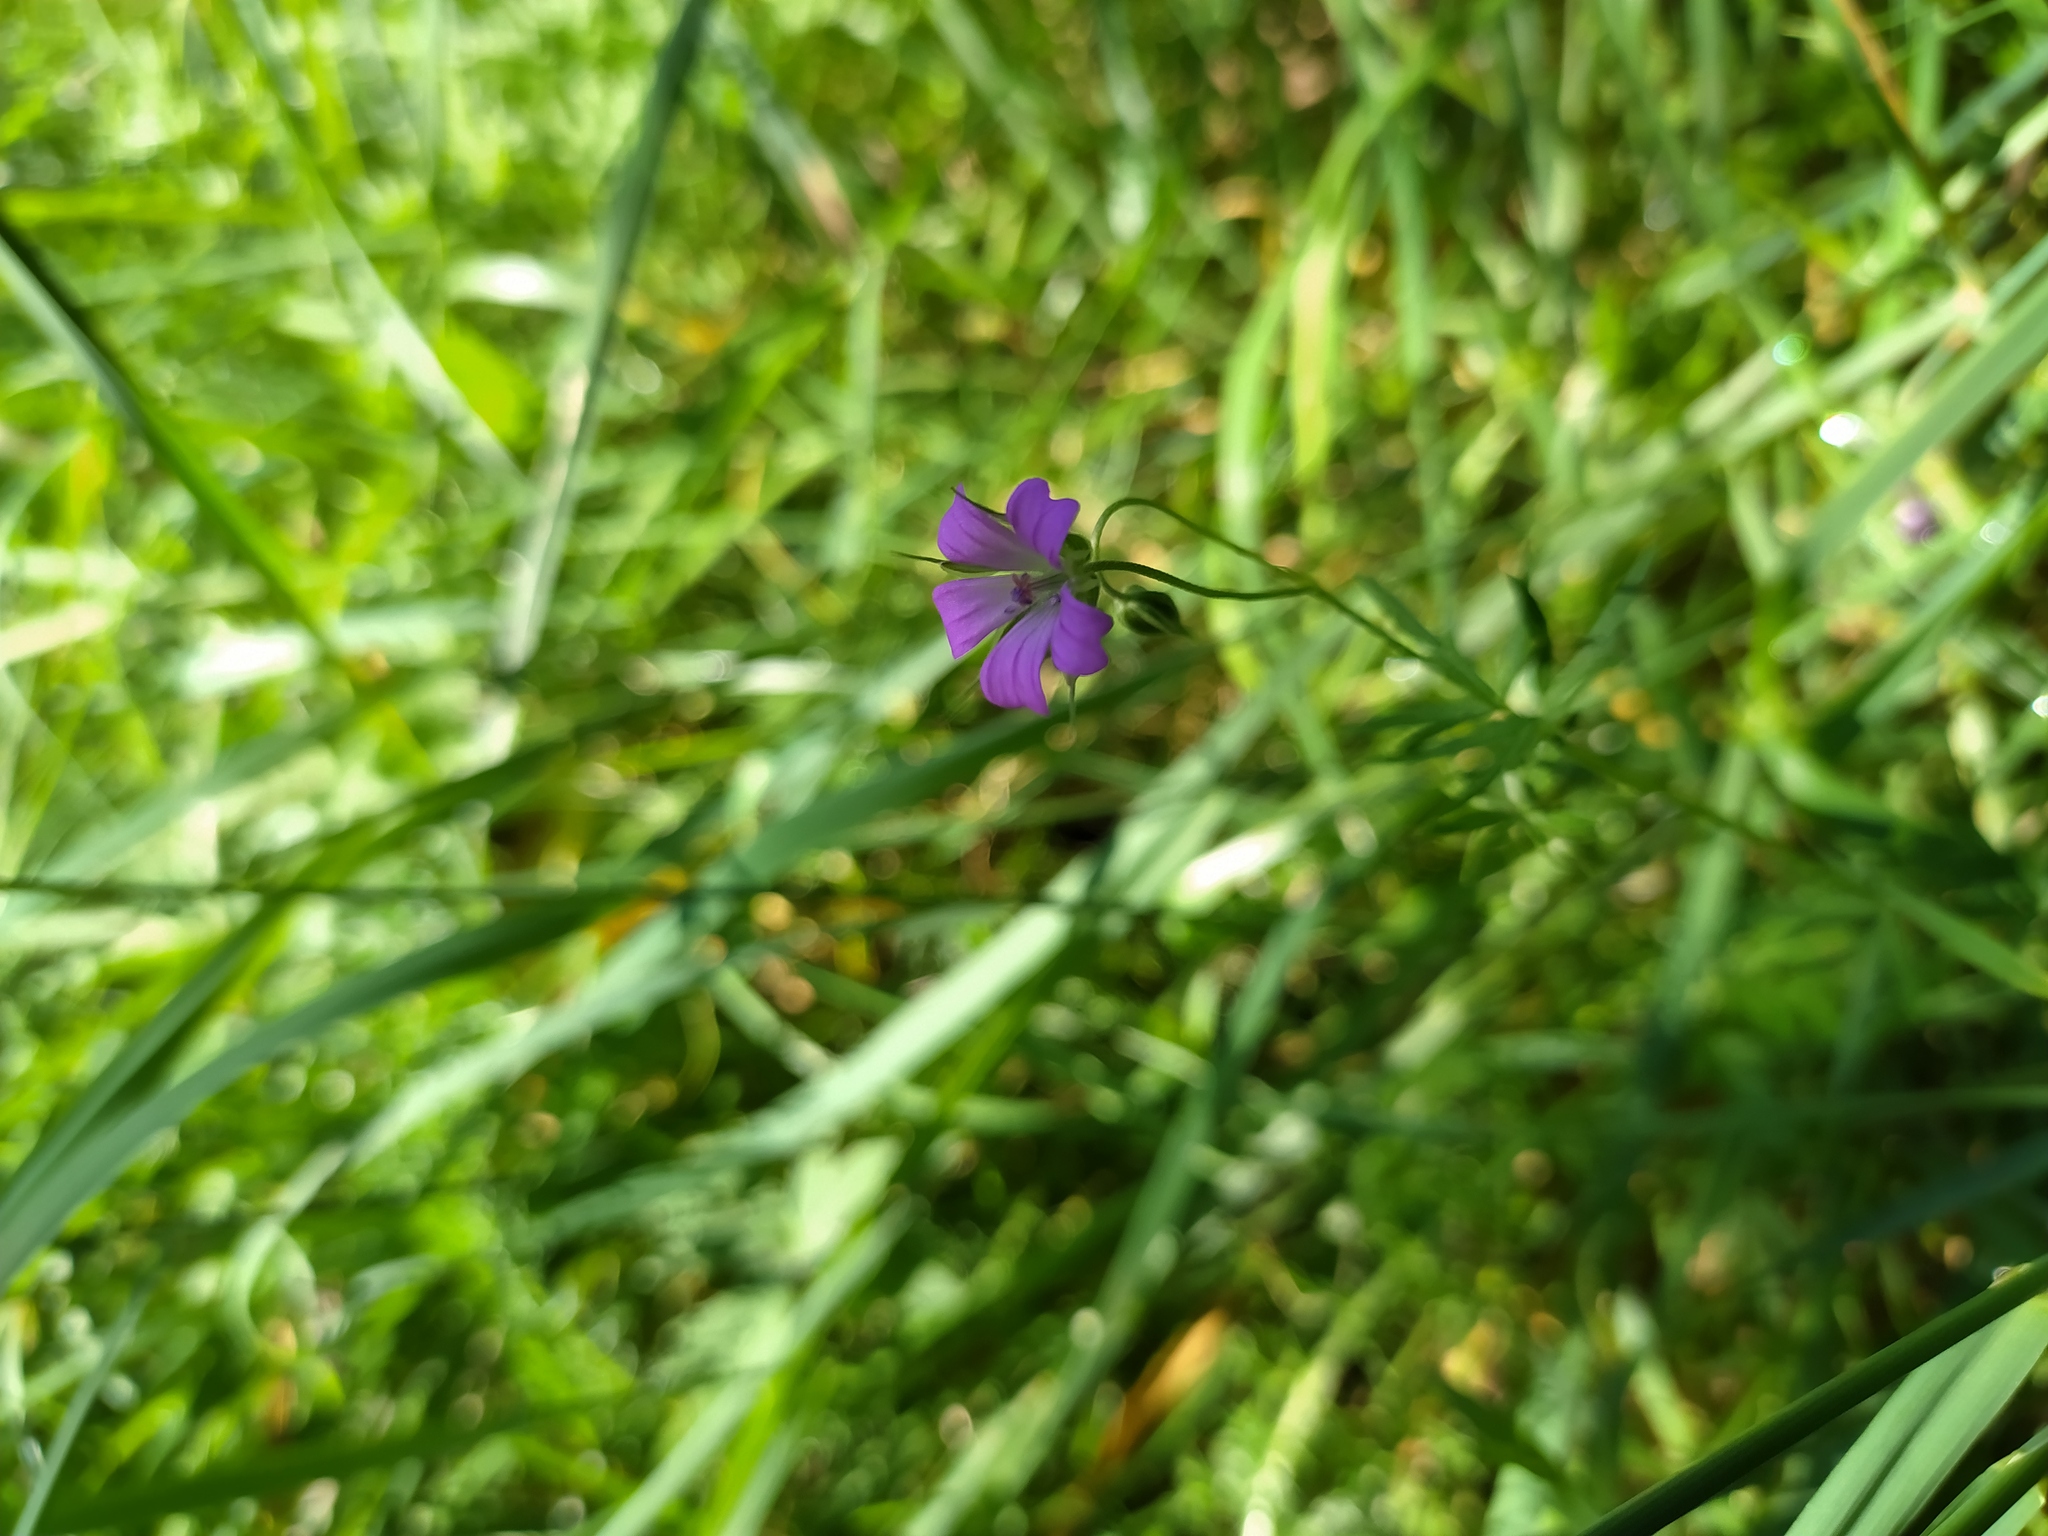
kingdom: Plantae
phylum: Tracheophyta
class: Magnoliopsida
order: Geraniales
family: Geraniaceae
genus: Geranium
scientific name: Geranium columbinum
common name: Long-stalked crane's-bill
